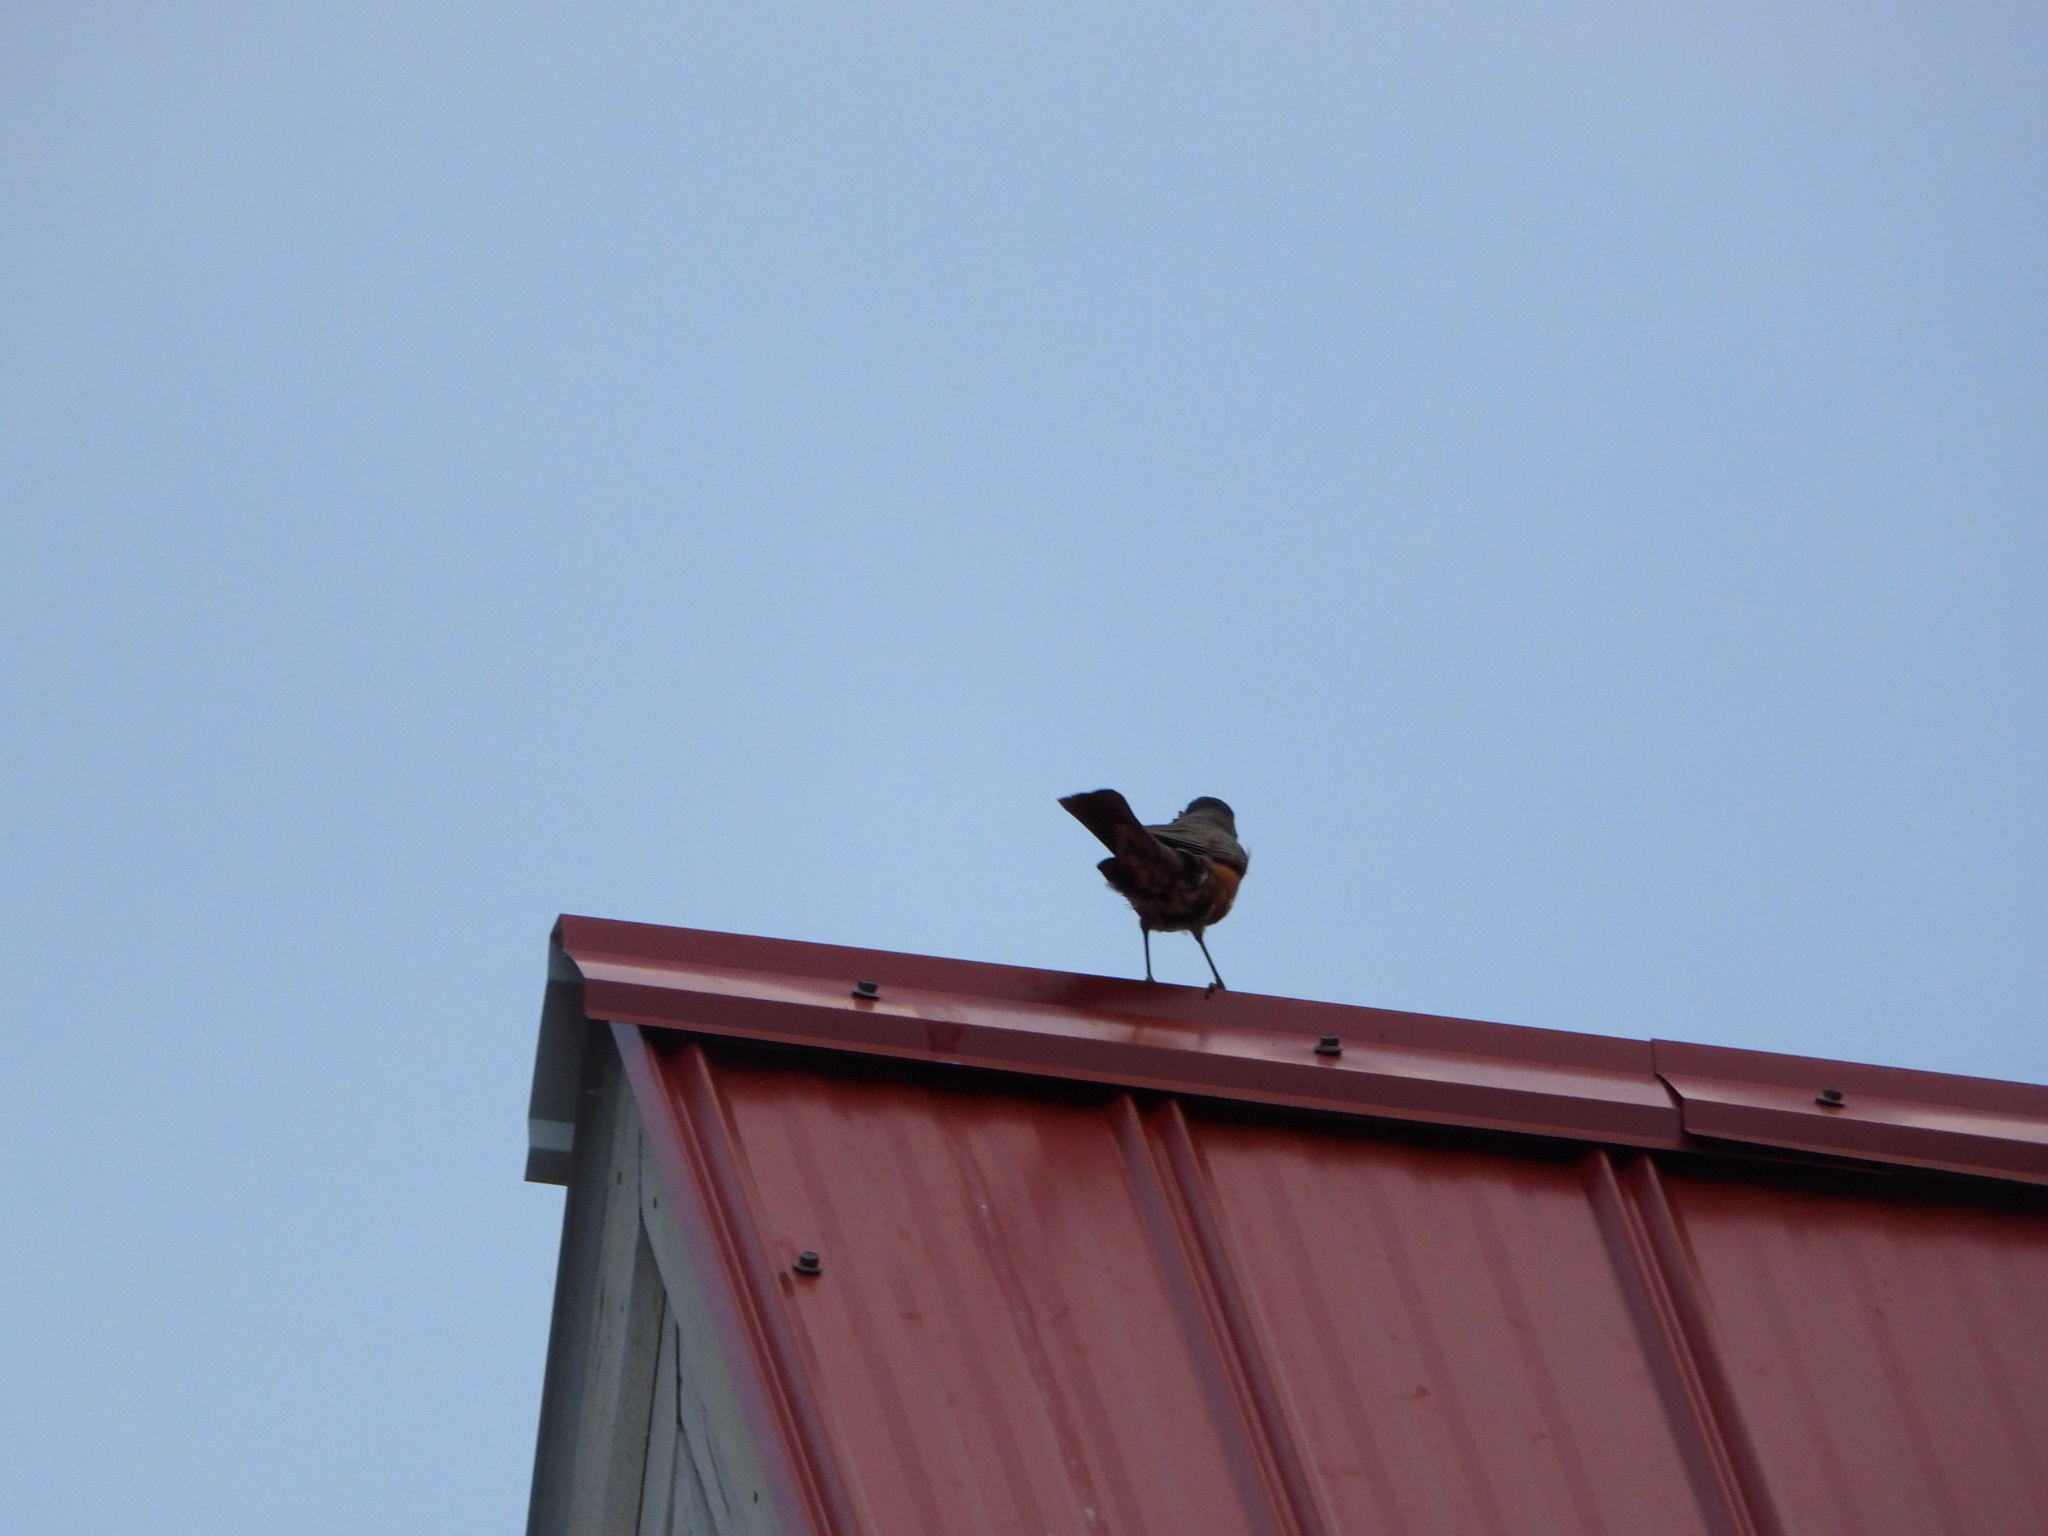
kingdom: Animalia
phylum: Chordata
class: Aves
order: Passeriformes
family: Turdidae
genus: Turdus
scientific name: Turdus migratorius
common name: American robin
